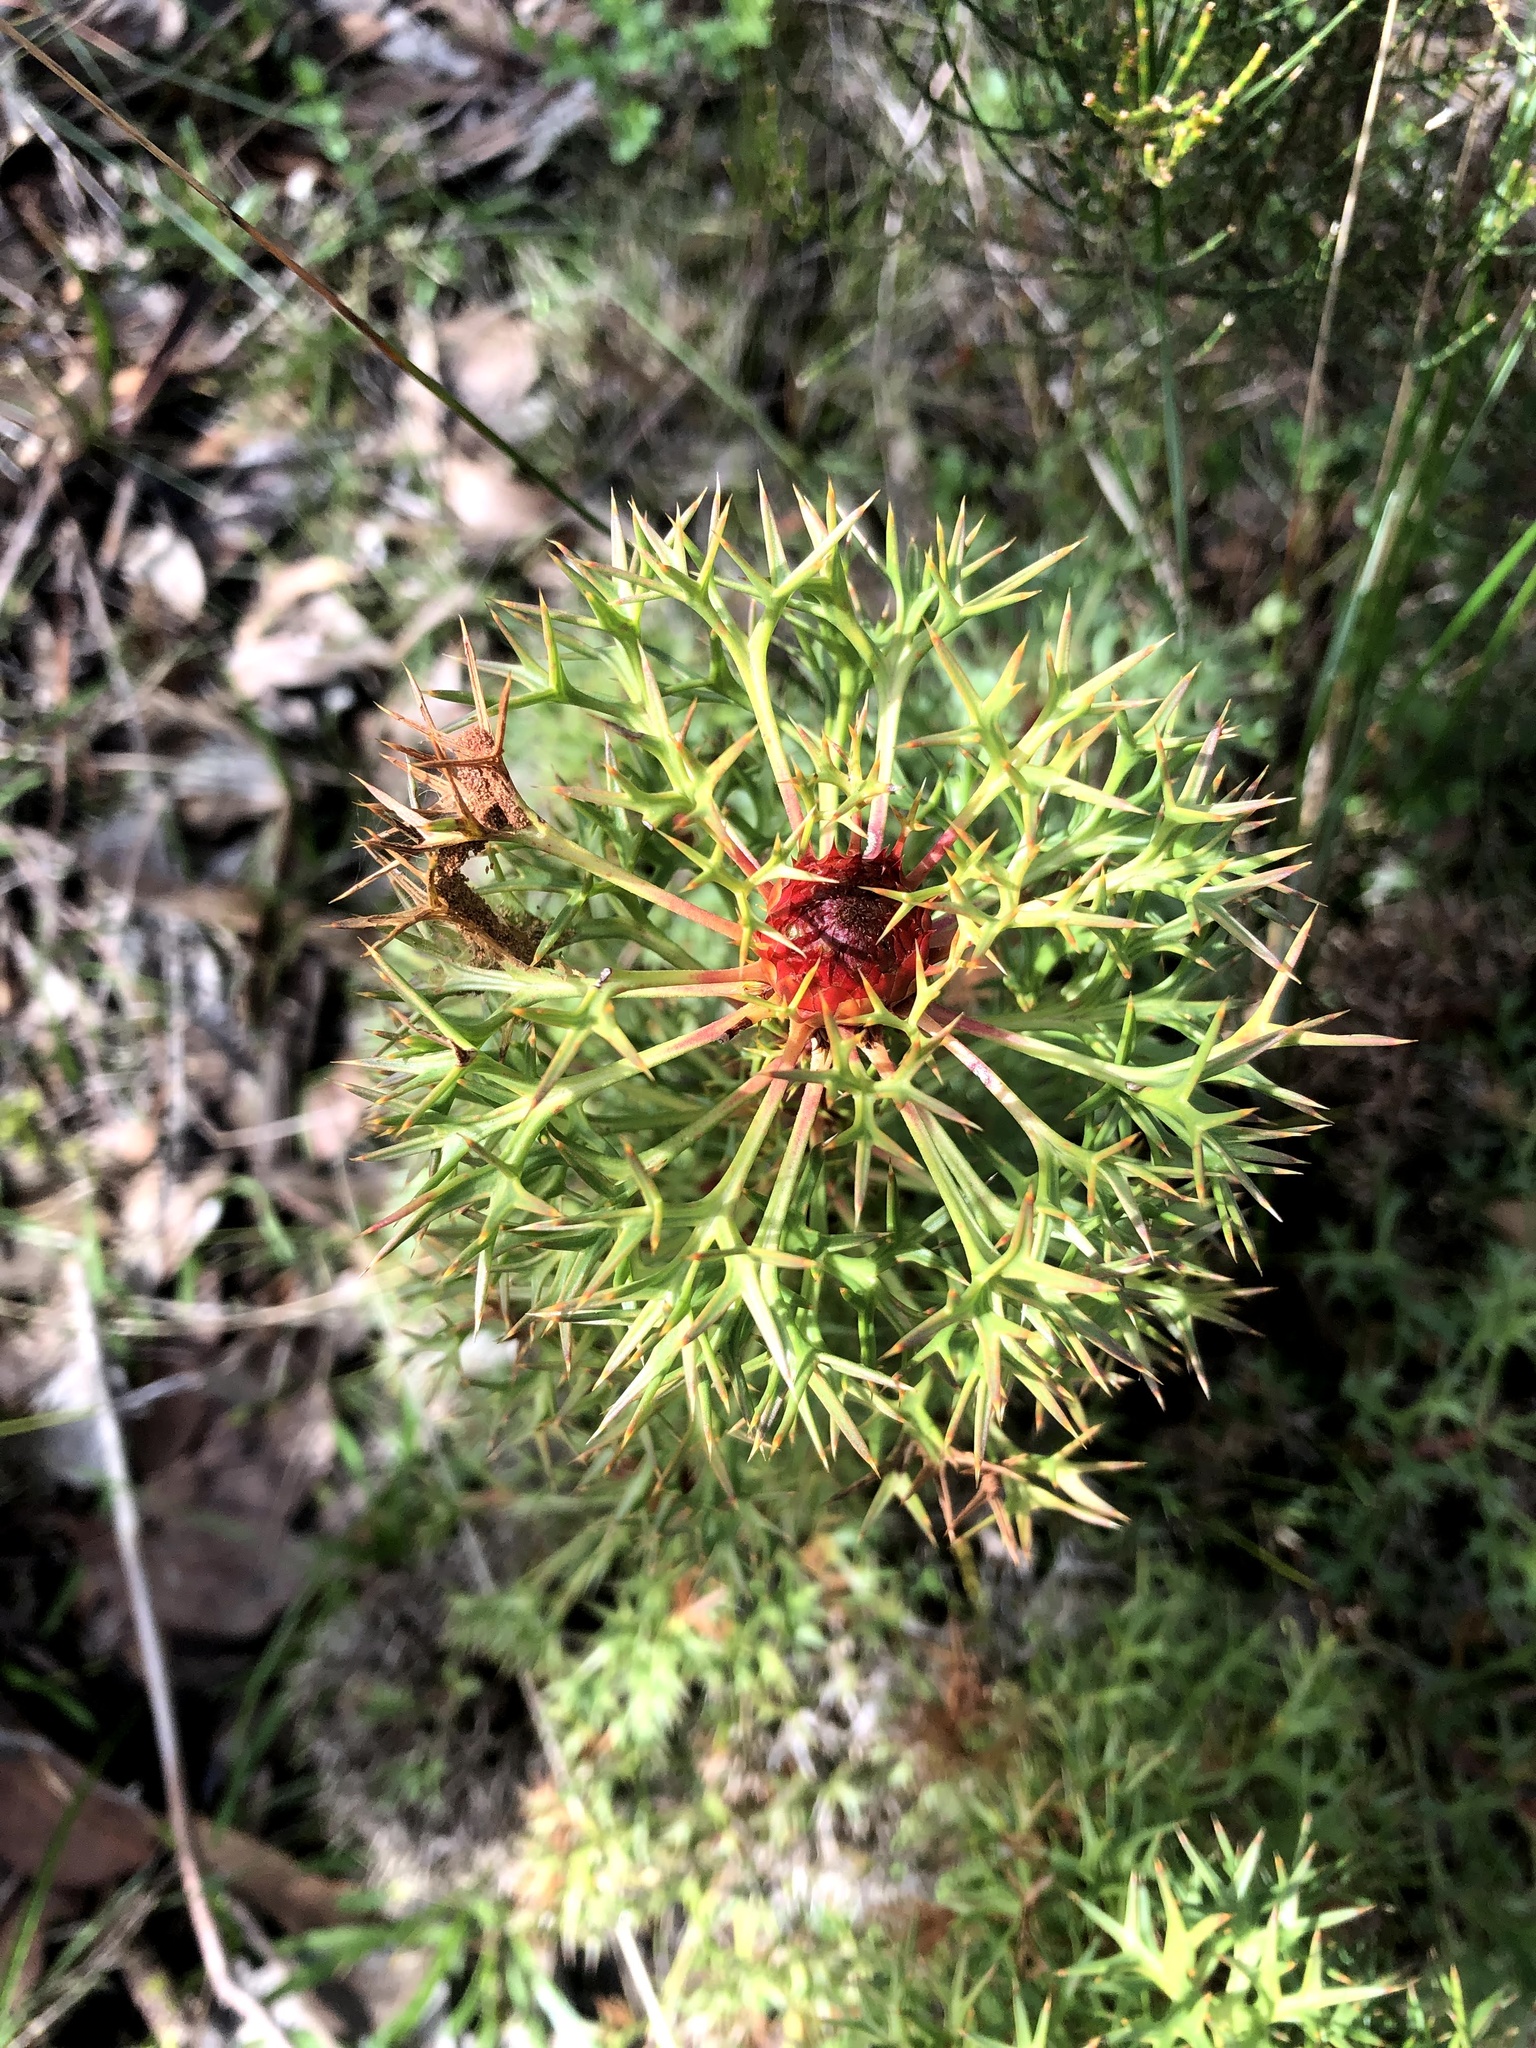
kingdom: Plantae
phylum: Tracheophyta
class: Magnoliopsida
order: Proteales
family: Proteaceae
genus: Isopogon
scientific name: Isopogon ceratophyllus
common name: Horny cone-bush
